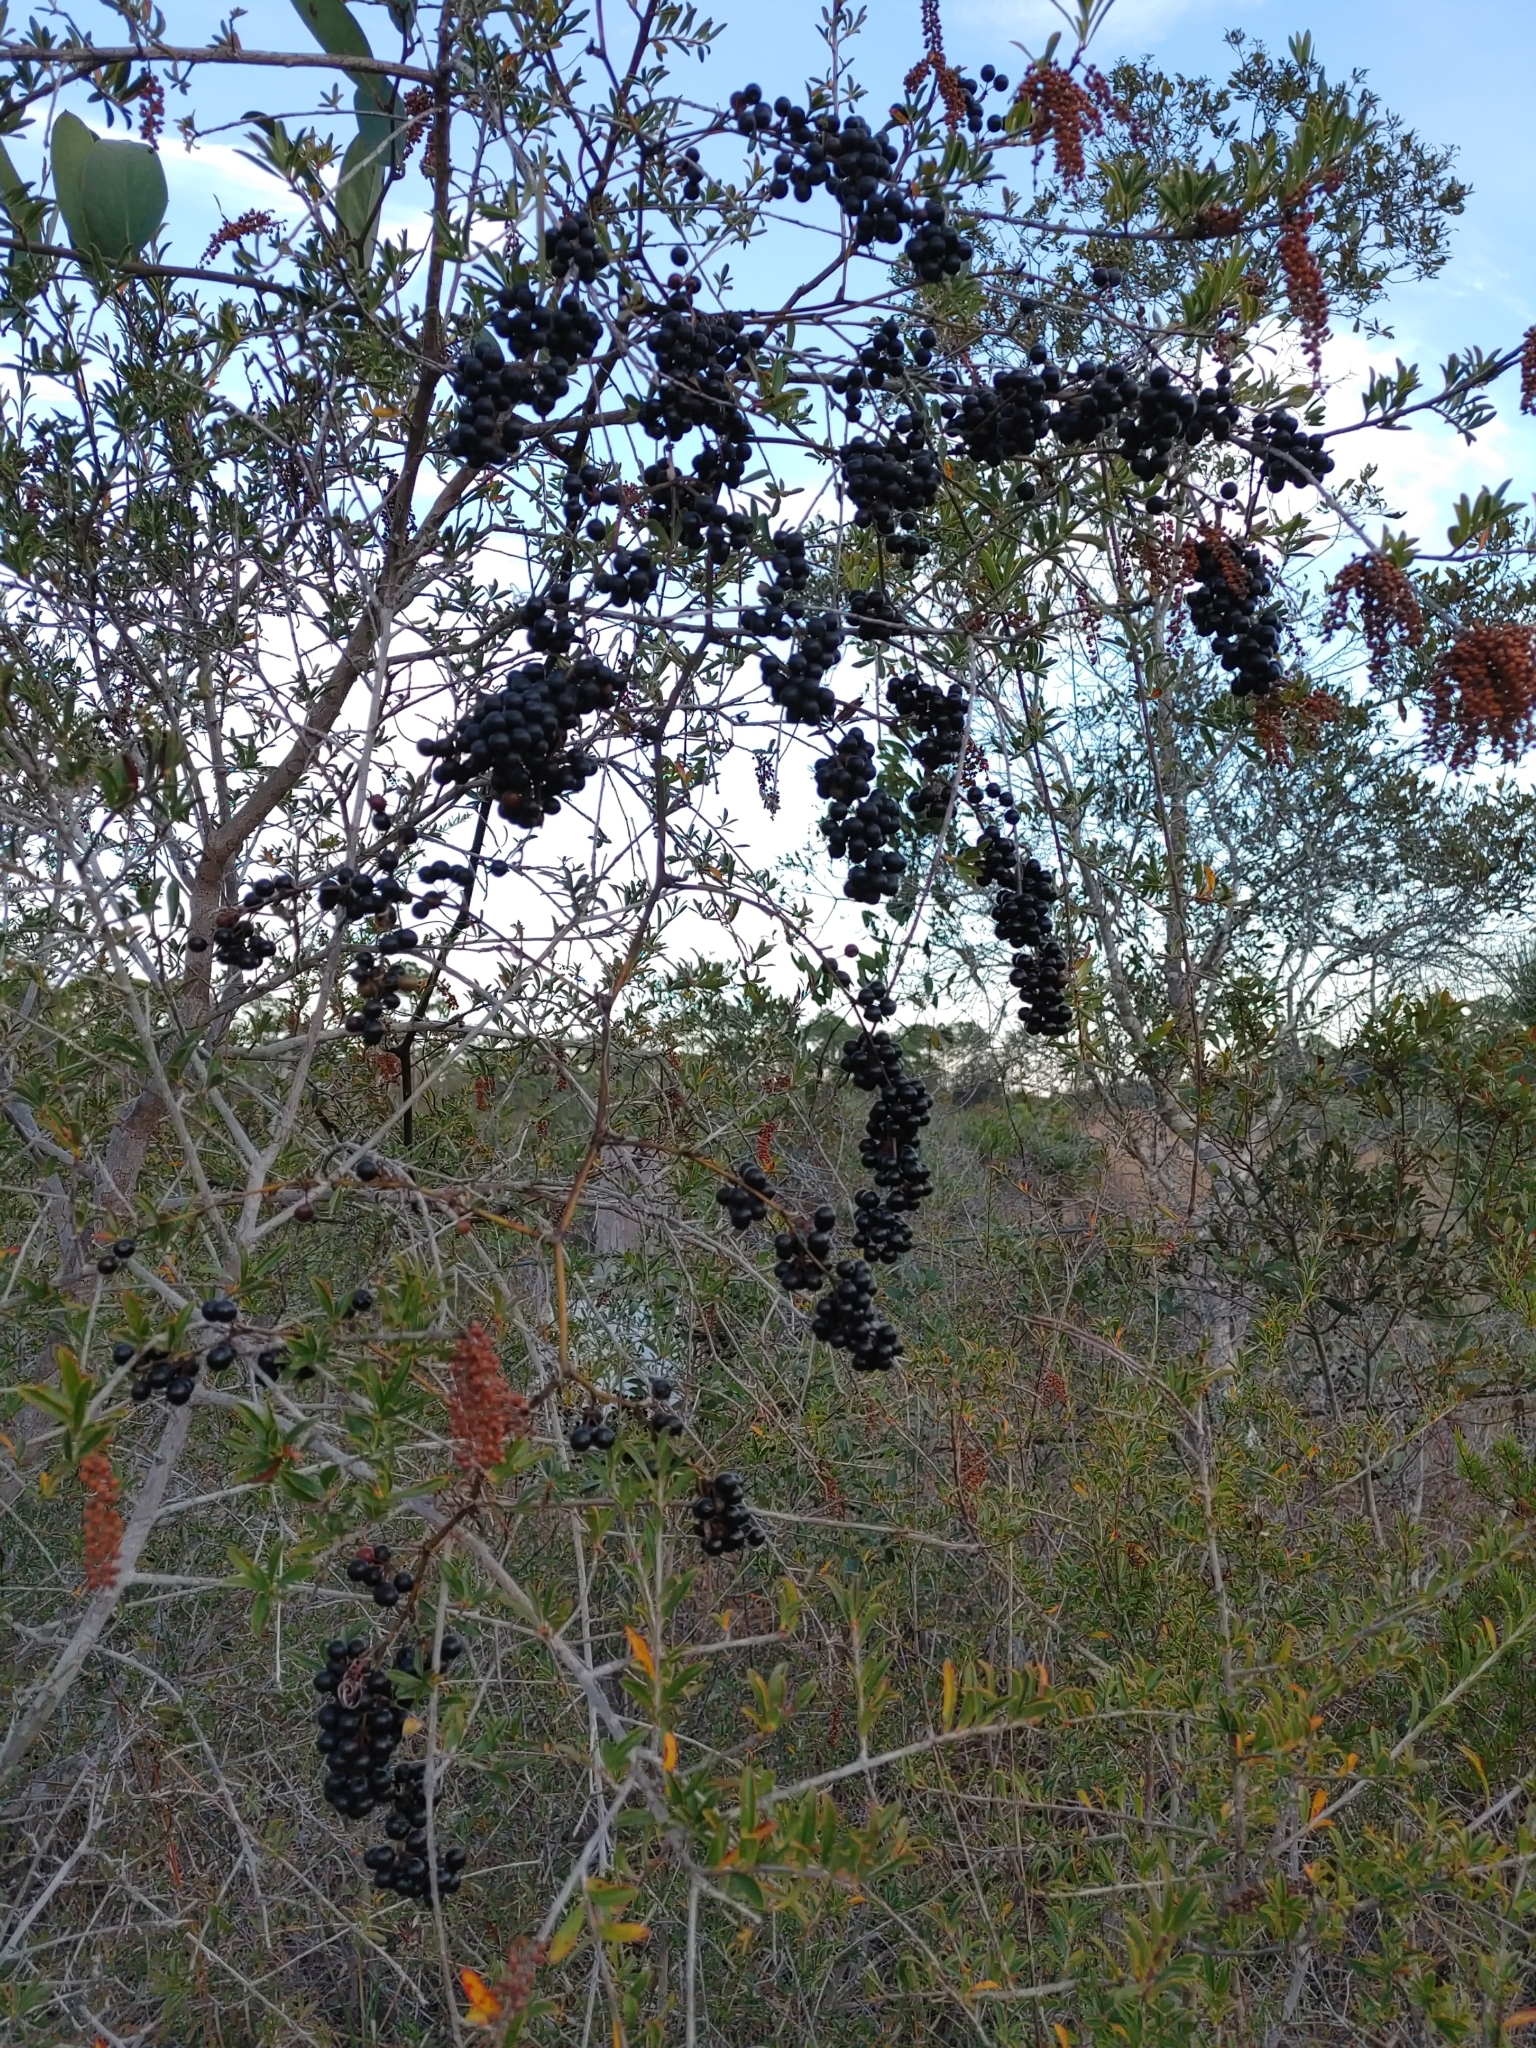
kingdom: Plantae
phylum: Tracheophyta
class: Liliopsida
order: Liliales
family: Smilacaceae
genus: Smilax
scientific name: Smilax laurifolia
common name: Bamboovine
